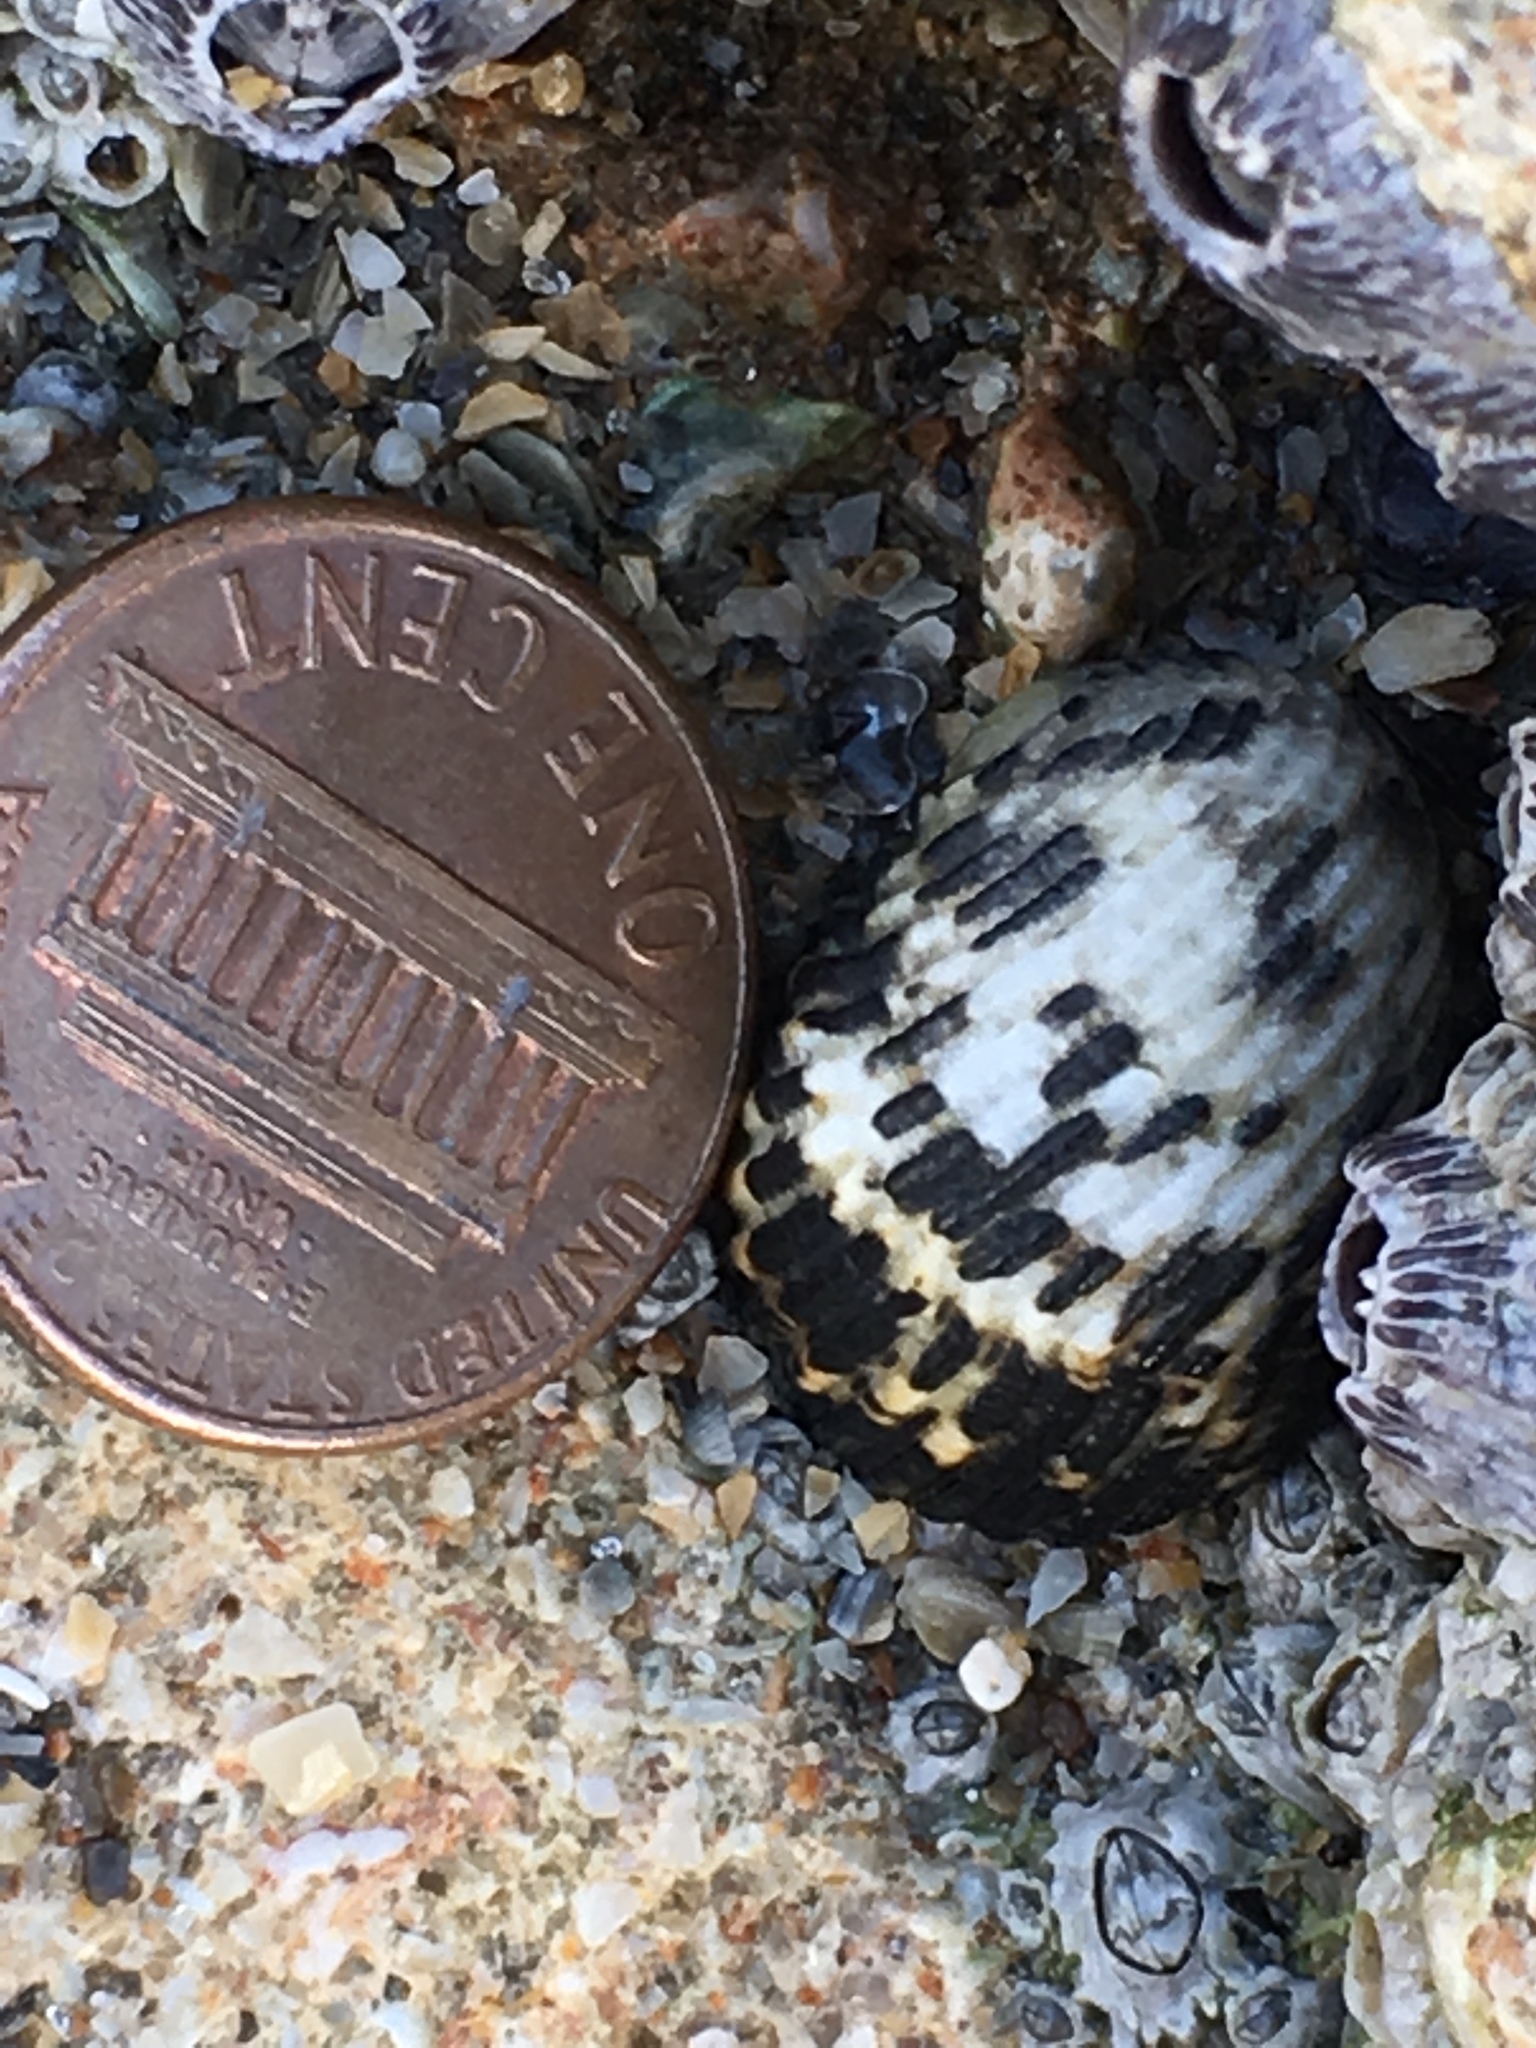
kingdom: Animalia
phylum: Mollusca
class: Gastropoda
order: Cycloneritida
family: Neritidae
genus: Nerita
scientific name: Nerita tessellata
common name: Checkered nerite
